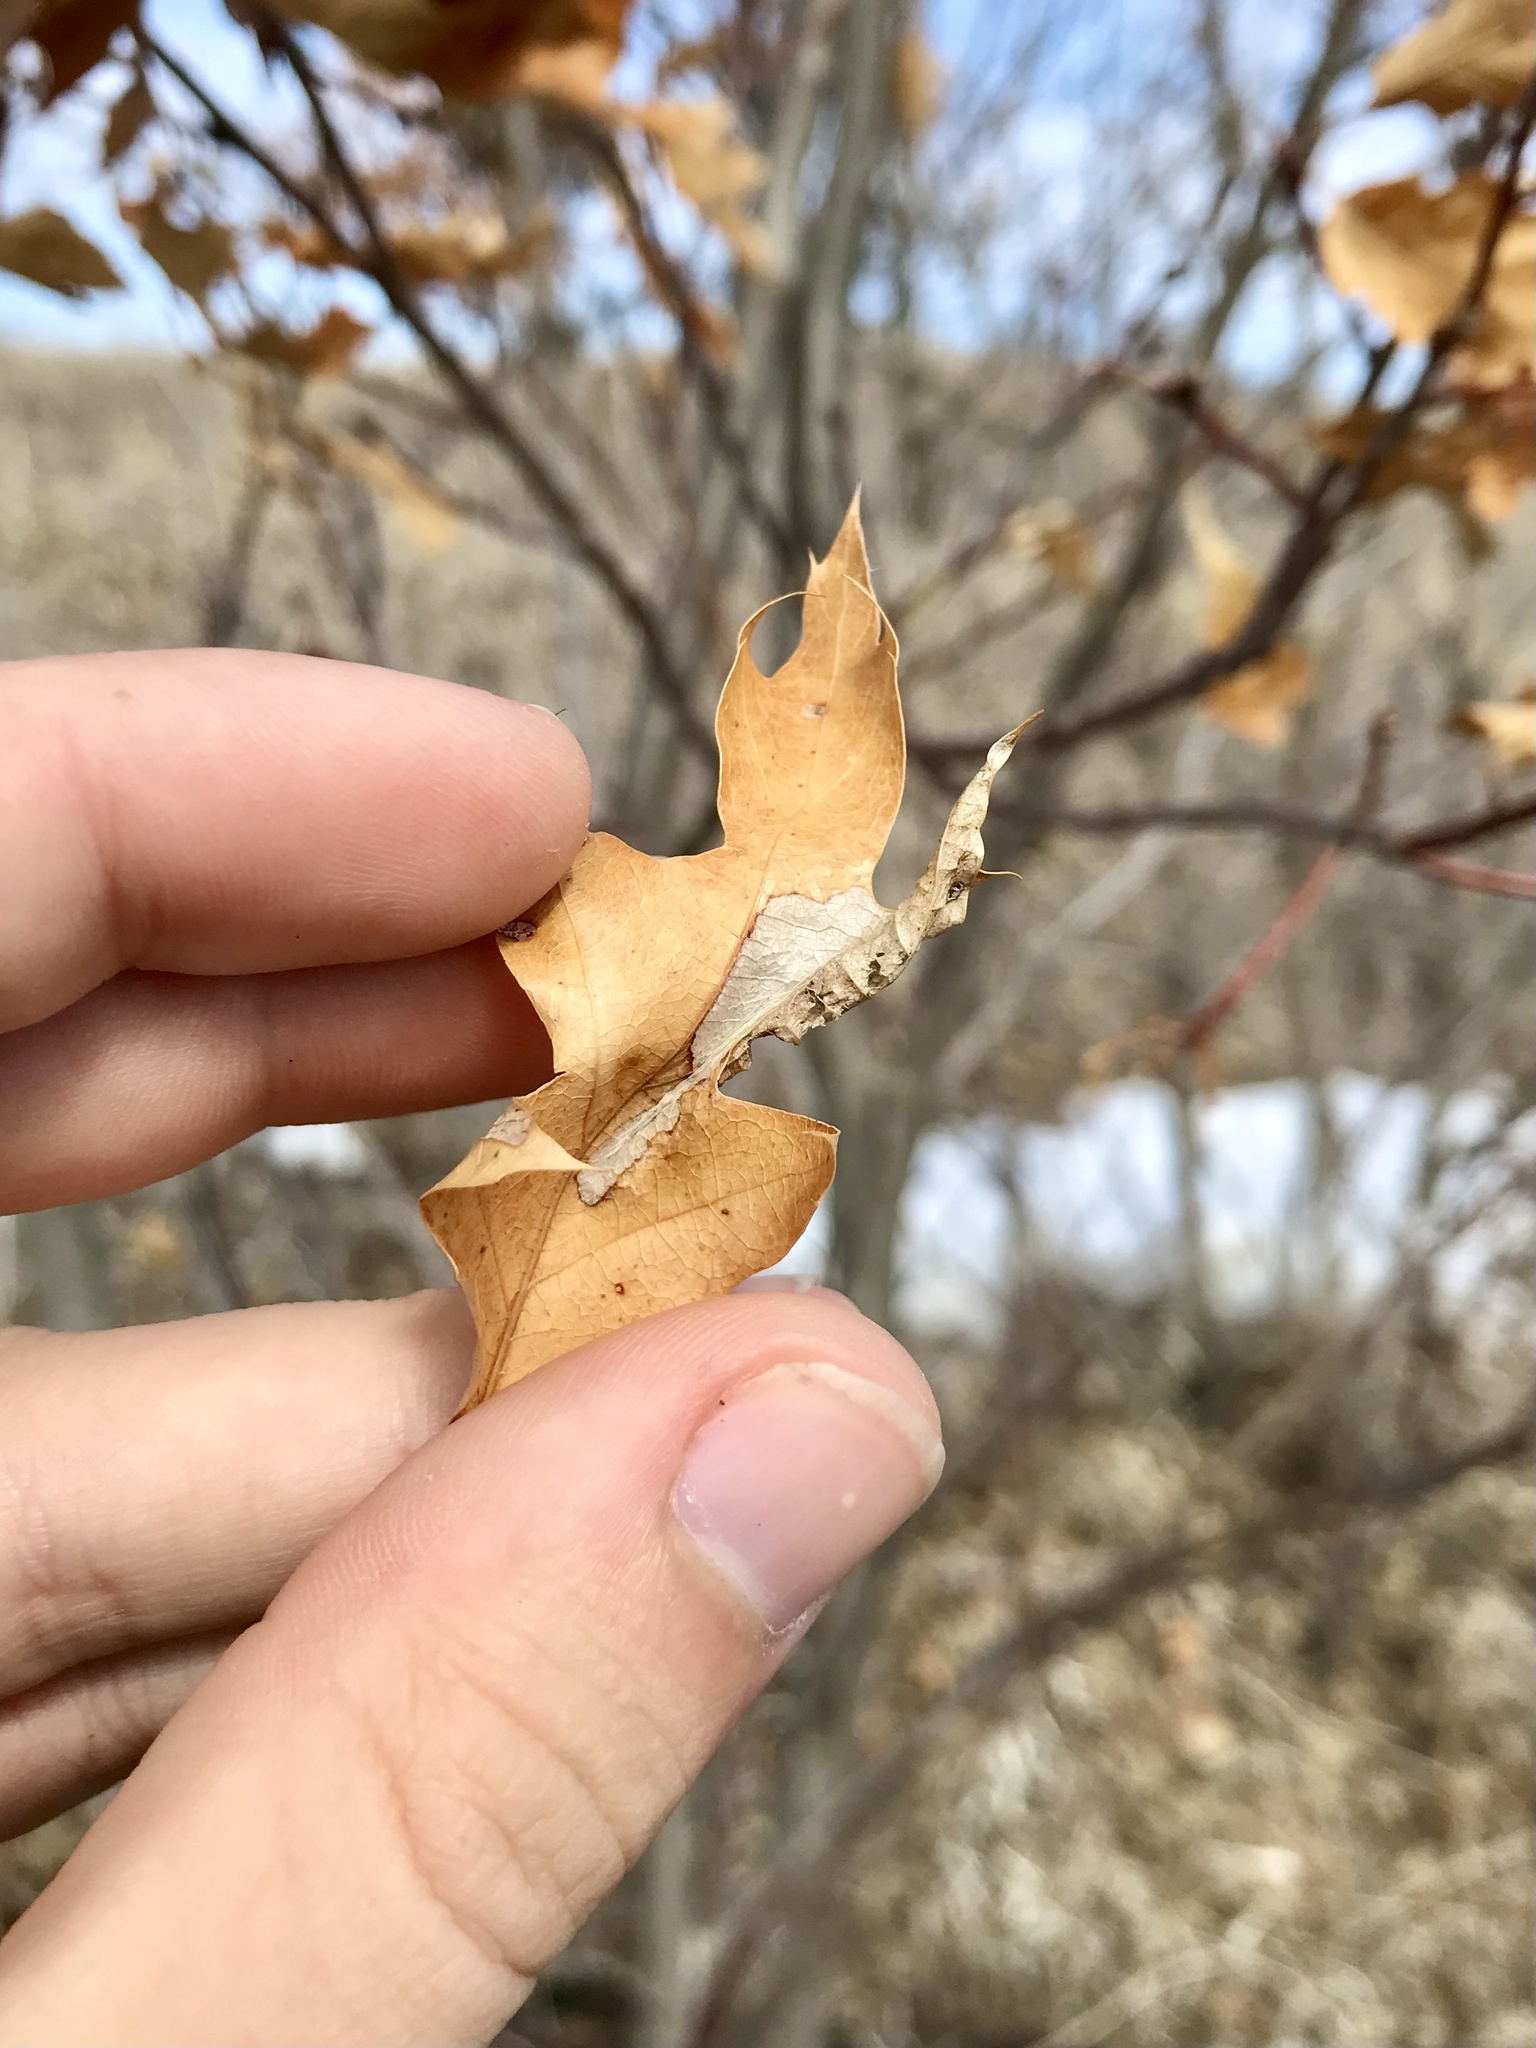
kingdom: Animalia
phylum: Arthropoda
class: Insecta
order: Lepidoptera
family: Tischeriidae
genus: Coptotriche
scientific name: Coptotriche citrinipennella
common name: The golden sweeper
